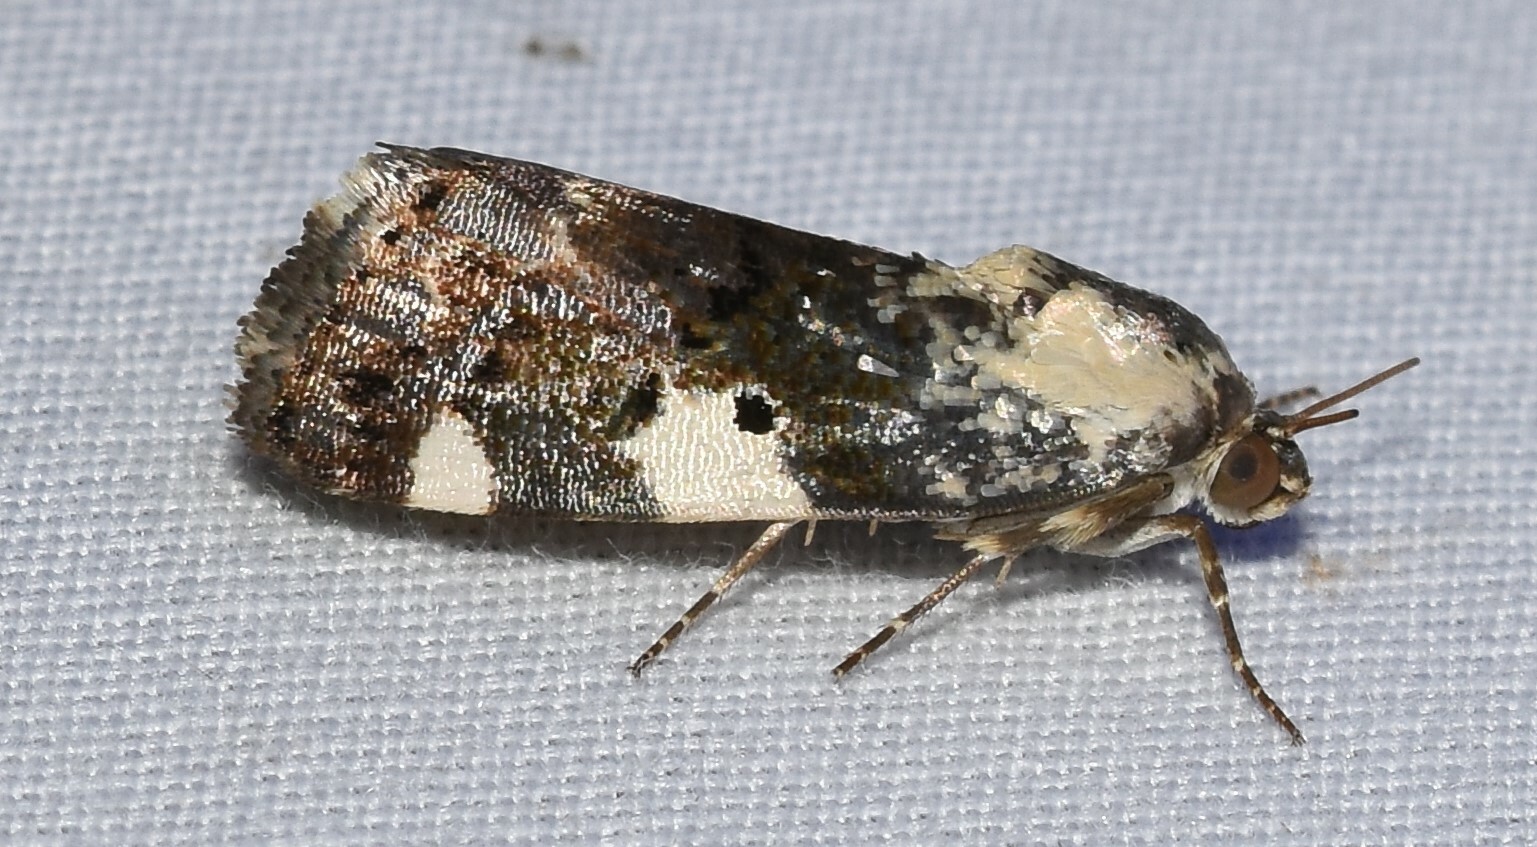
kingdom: Animalia
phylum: Arthropoda
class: Insecta
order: Lepidoptera
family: Noctuidae
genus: Acontia
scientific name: Acontia aprica
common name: Nun
